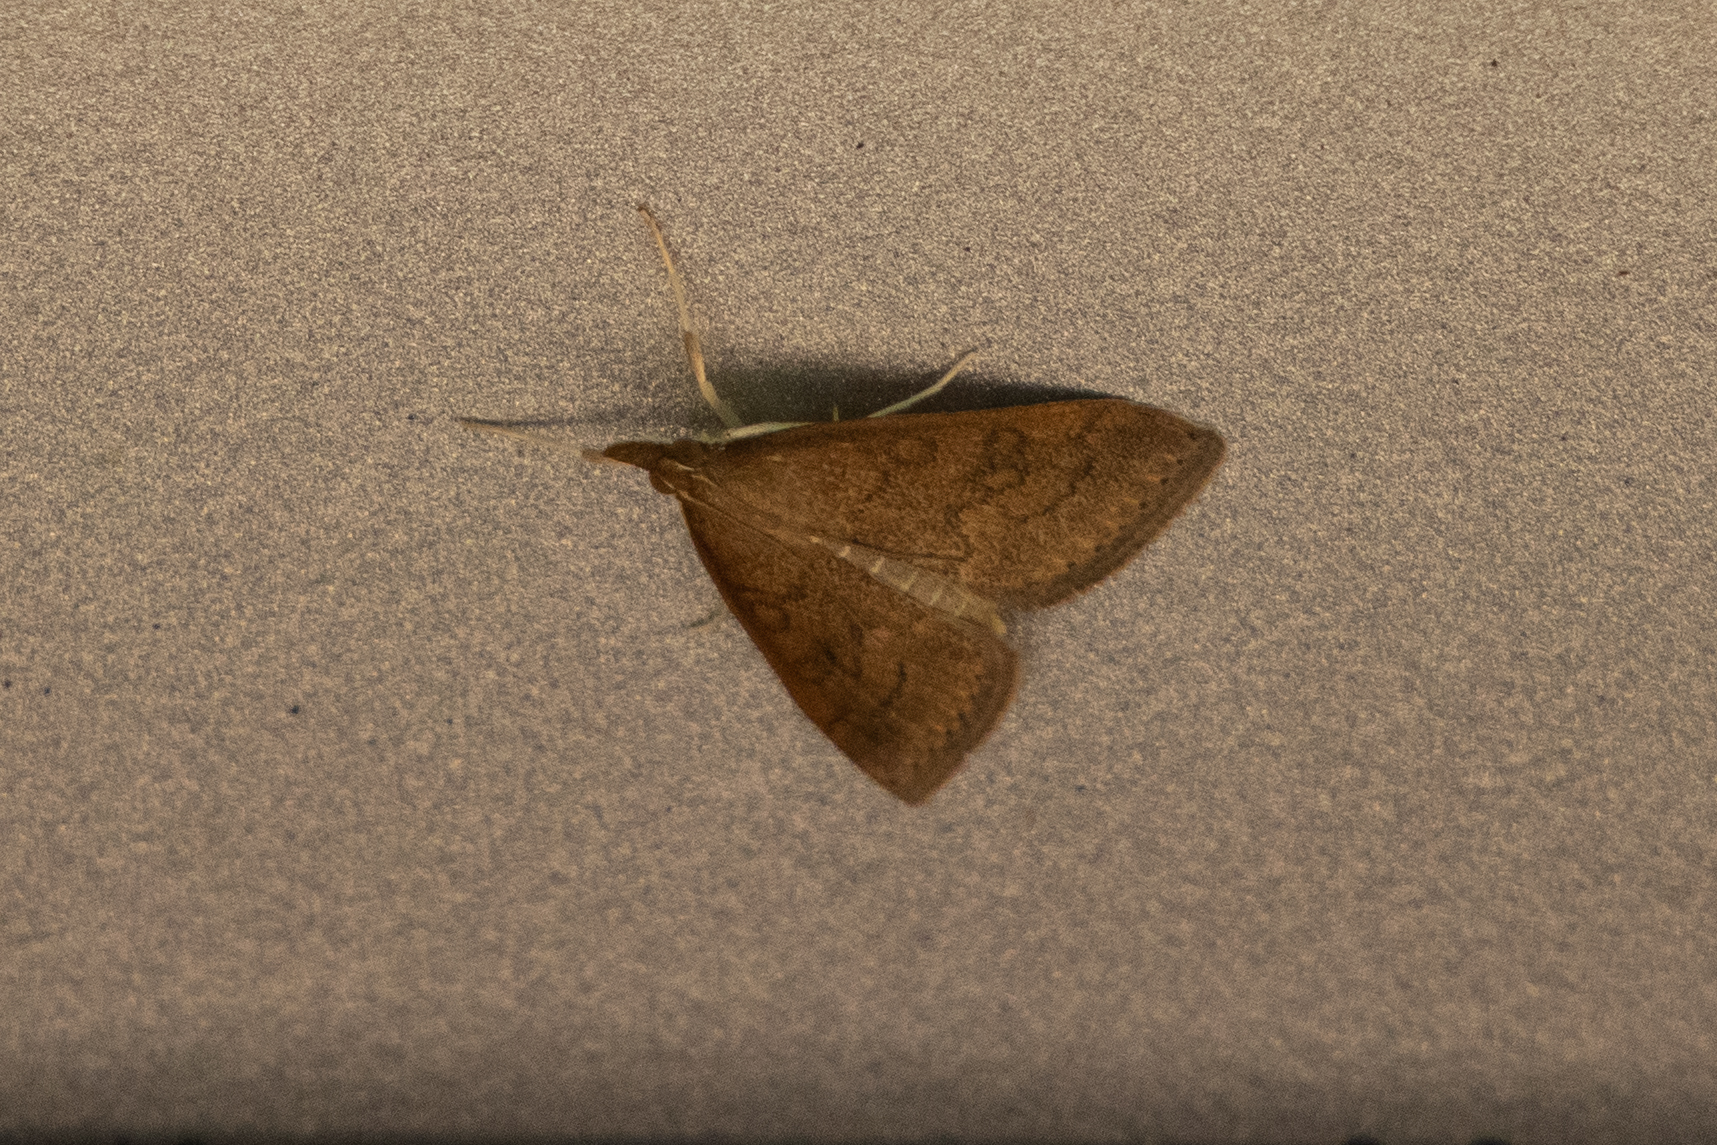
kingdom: Animalia
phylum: Arthropoda
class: Insecta
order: Lepidoptera
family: Crambidae
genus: Udea
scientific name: Udea rubigalis
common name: Celery leaftier moth
